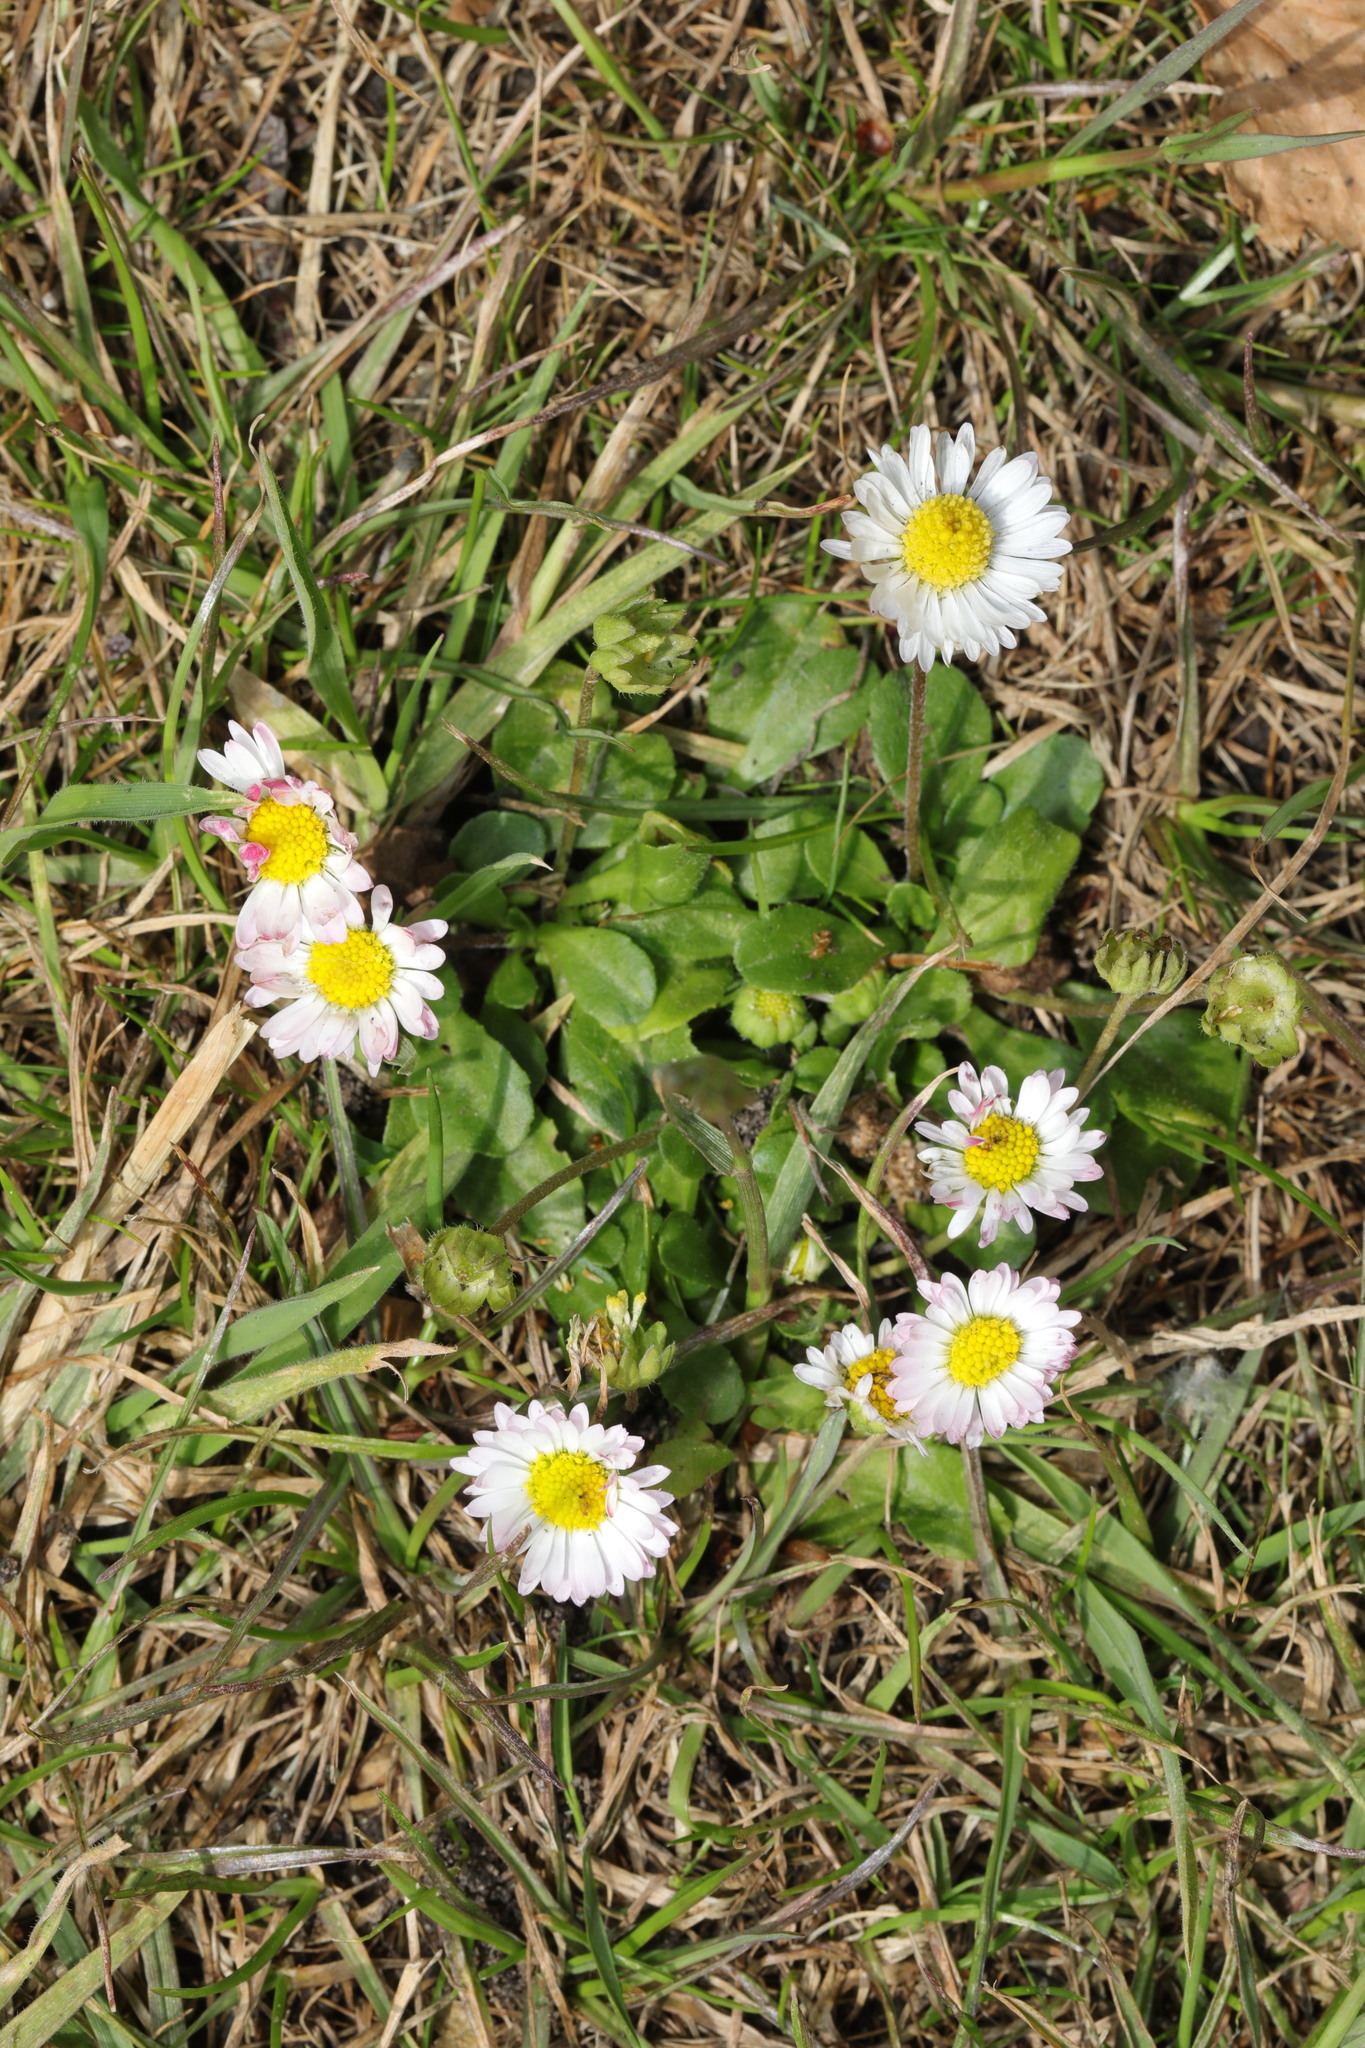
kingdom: Plantae
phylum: Tracheophyta
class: Magnoliopsida
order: Asterales
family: Asteraceae
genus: Bellis
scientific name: Bellis perennis
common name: Lawndaisy
